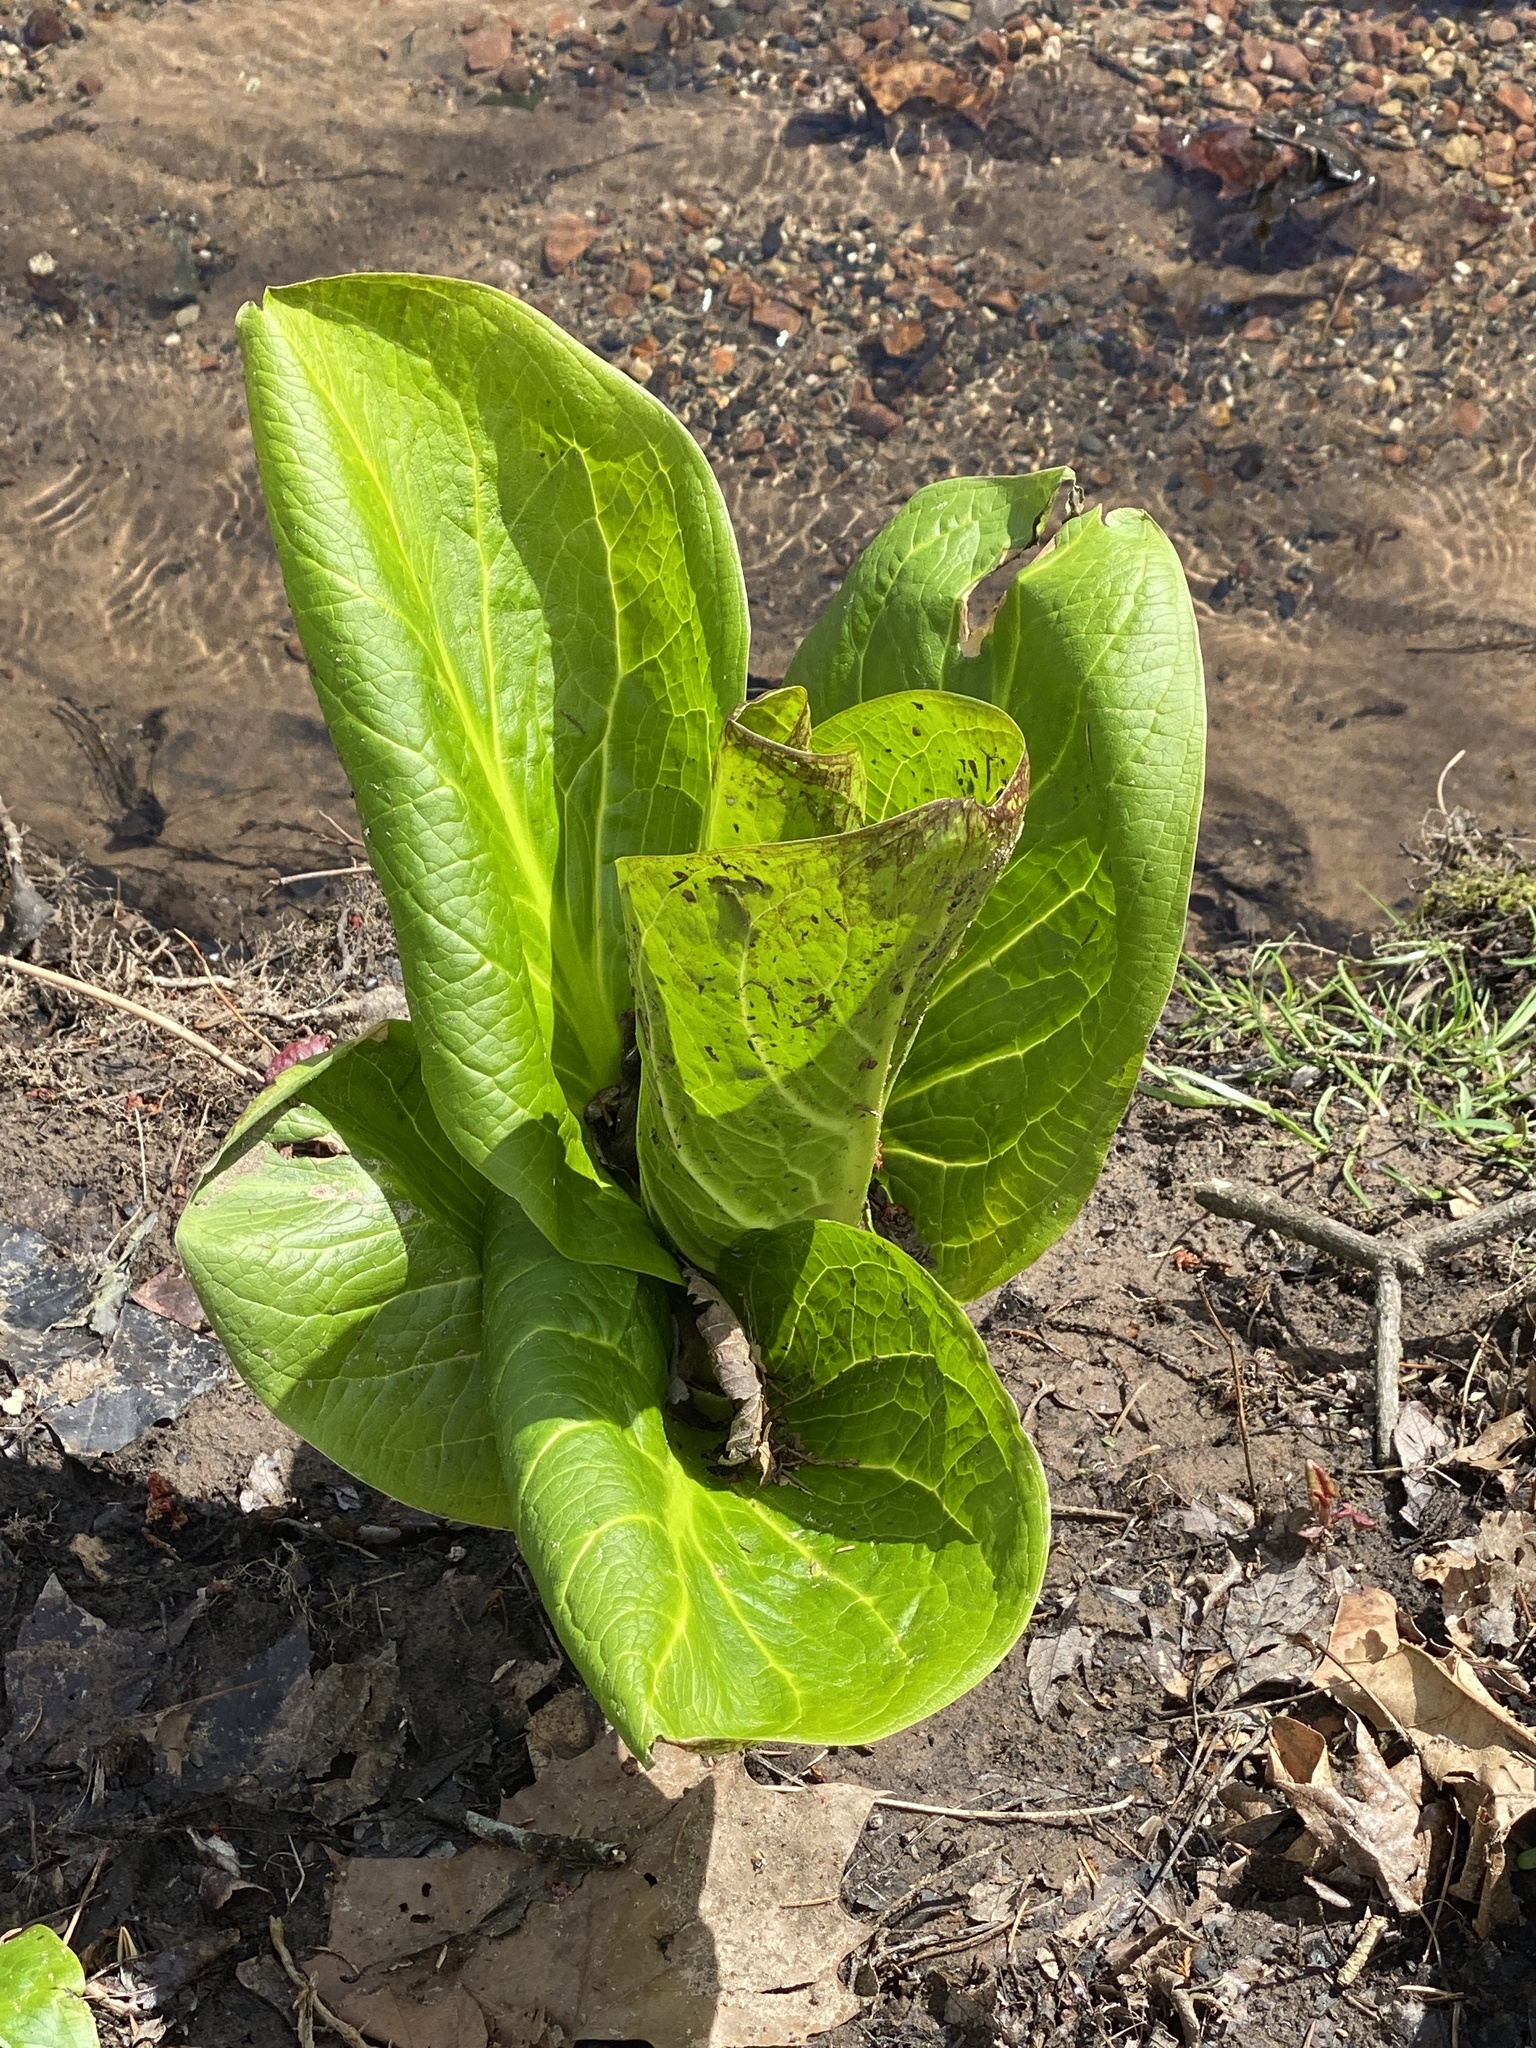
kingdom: Plantae
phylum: Tracheophyta
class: Liliopsida
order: Alismatales
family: Araceae
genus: Symplocarpus
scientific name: Symplocarpus foetidus
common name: Eastern skunk cabbage
